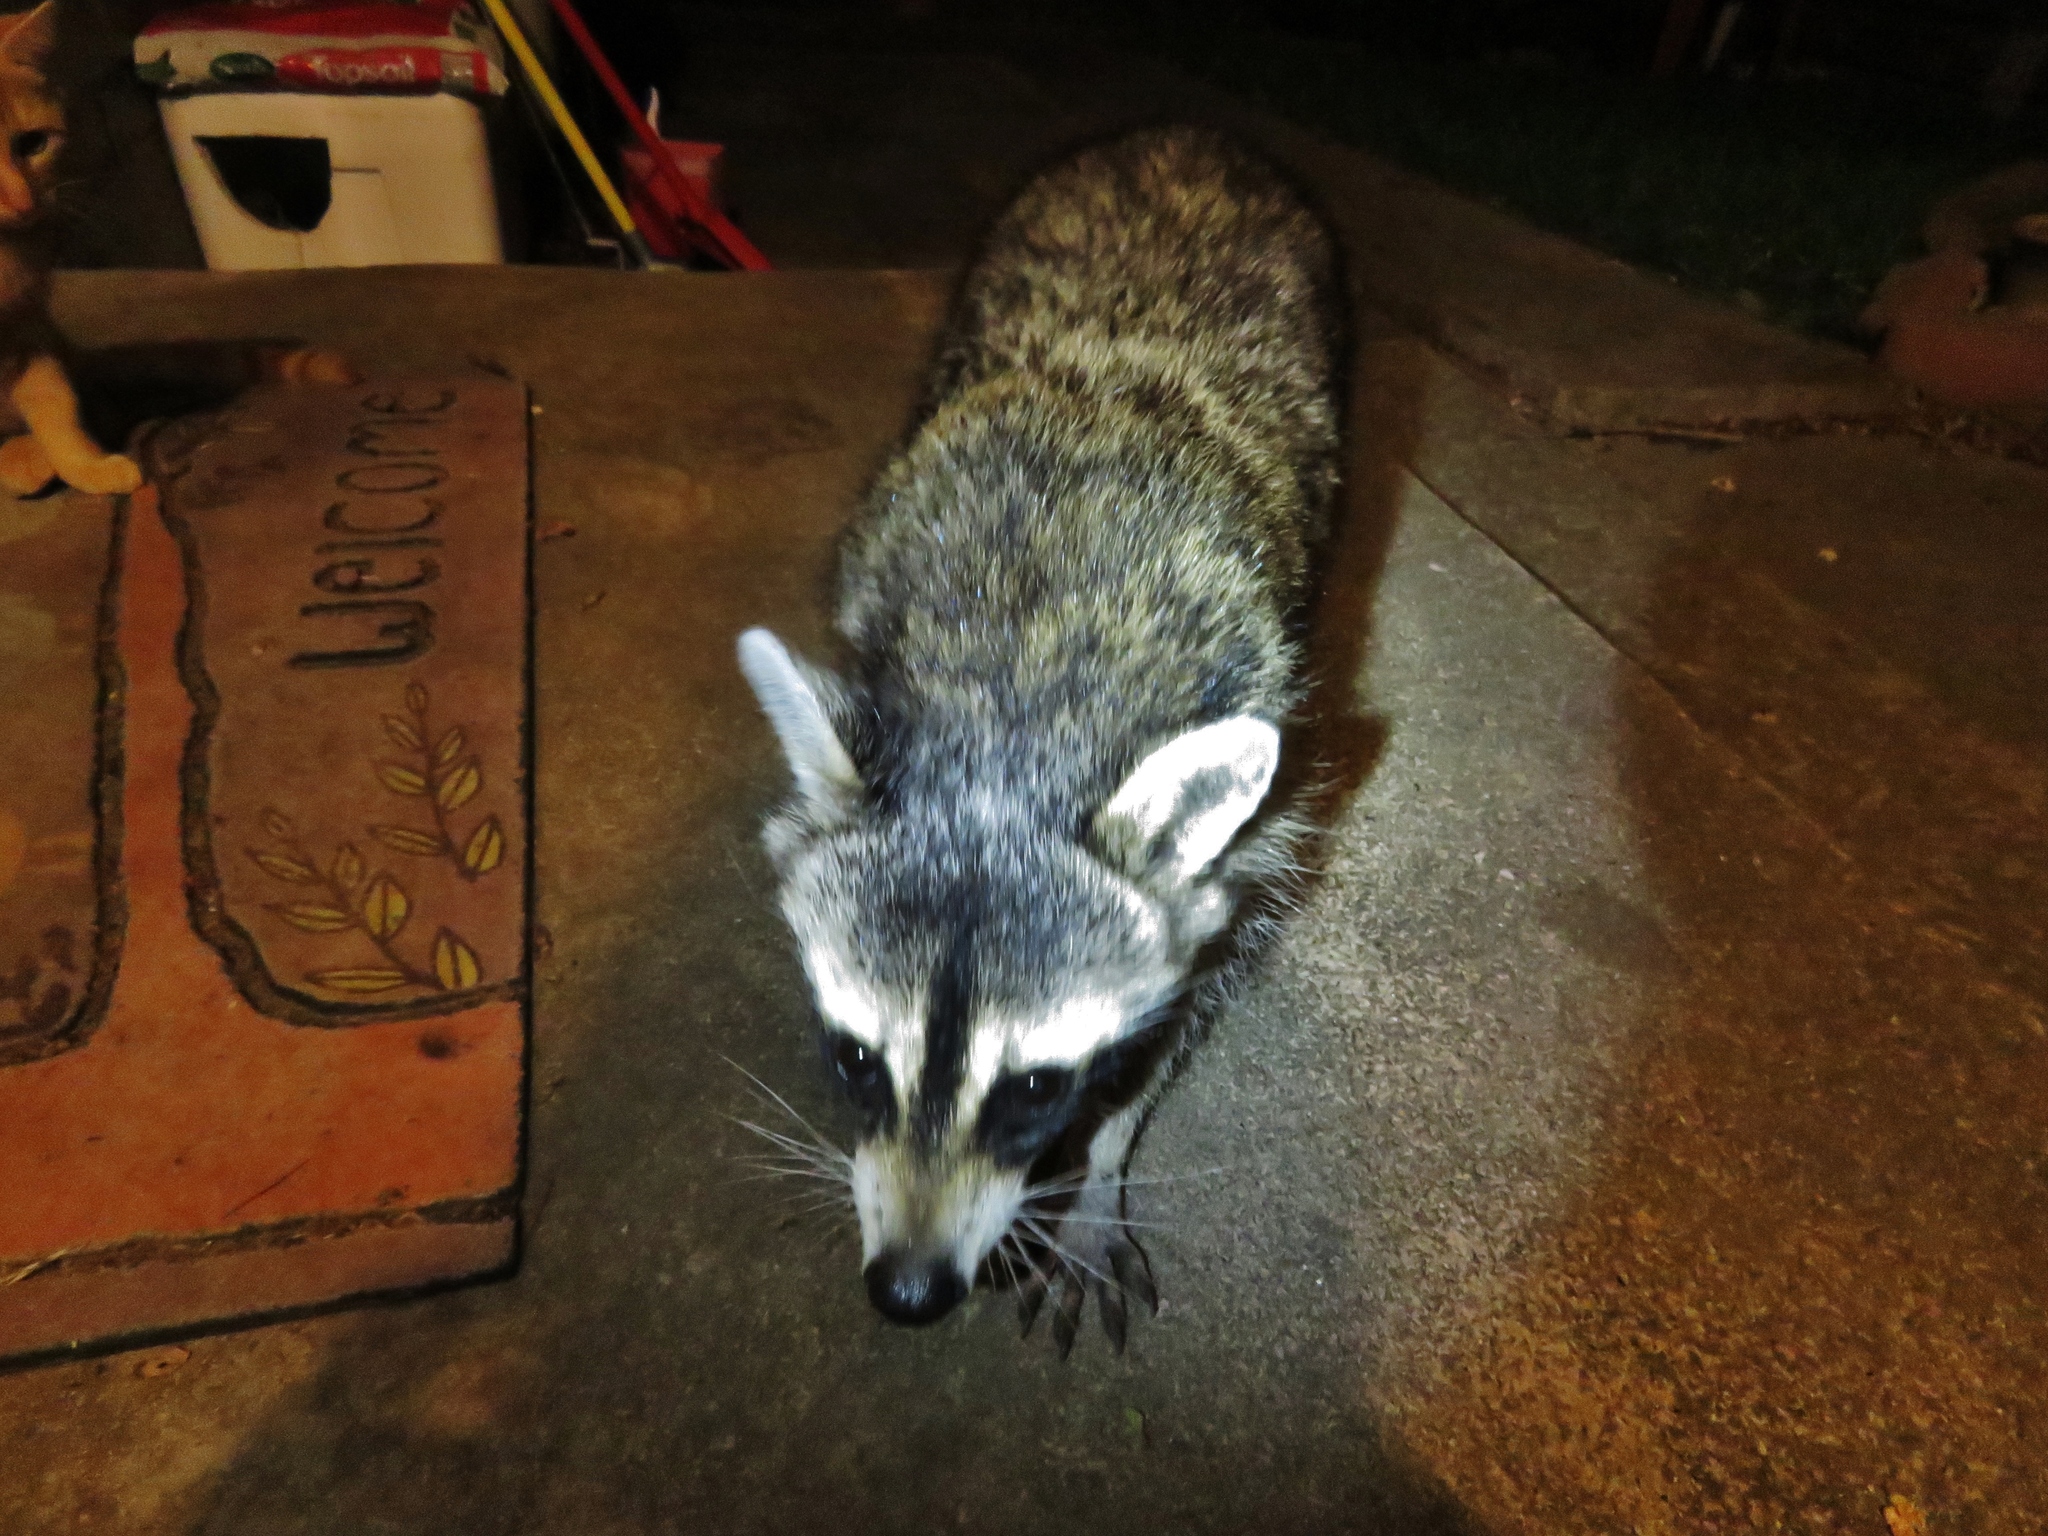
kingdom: Animalia
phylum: Chordata
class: Mammalia
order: Carnivora
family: Procyonidae
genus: Procyon
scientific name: Procyon lotor
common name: Raccoon
